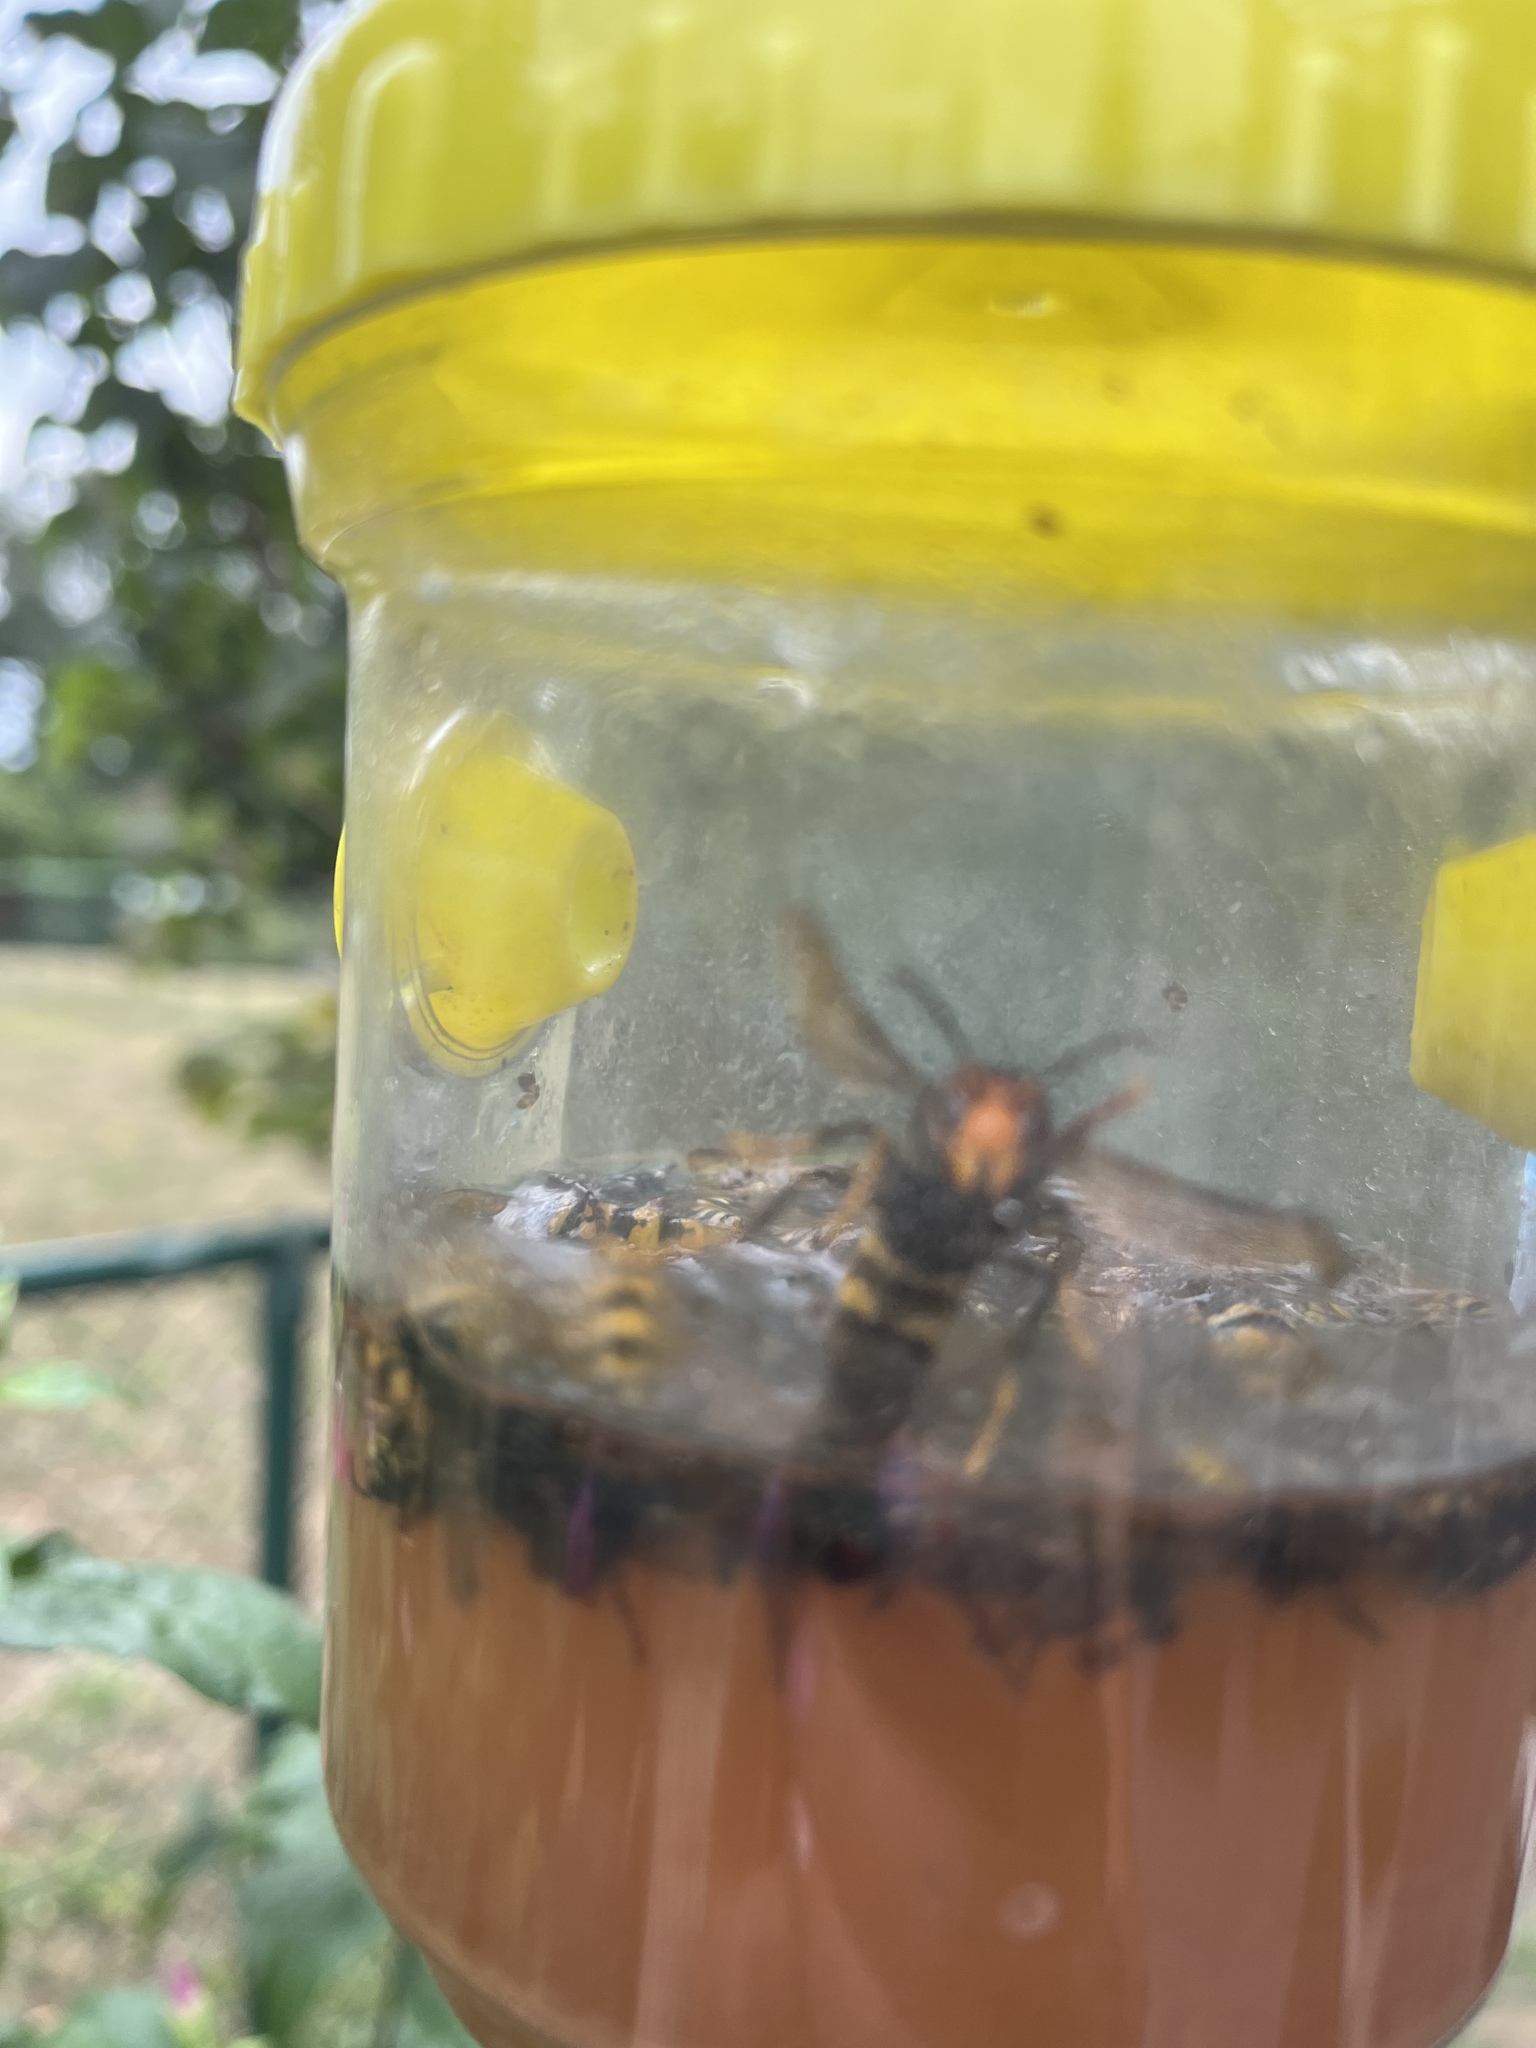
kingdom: Animalia
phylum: Arthropoda
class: Insecta
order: Hymenoptera
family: Vespidae
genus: Vespa
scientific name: Vespa velutina
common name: Asian hornet
